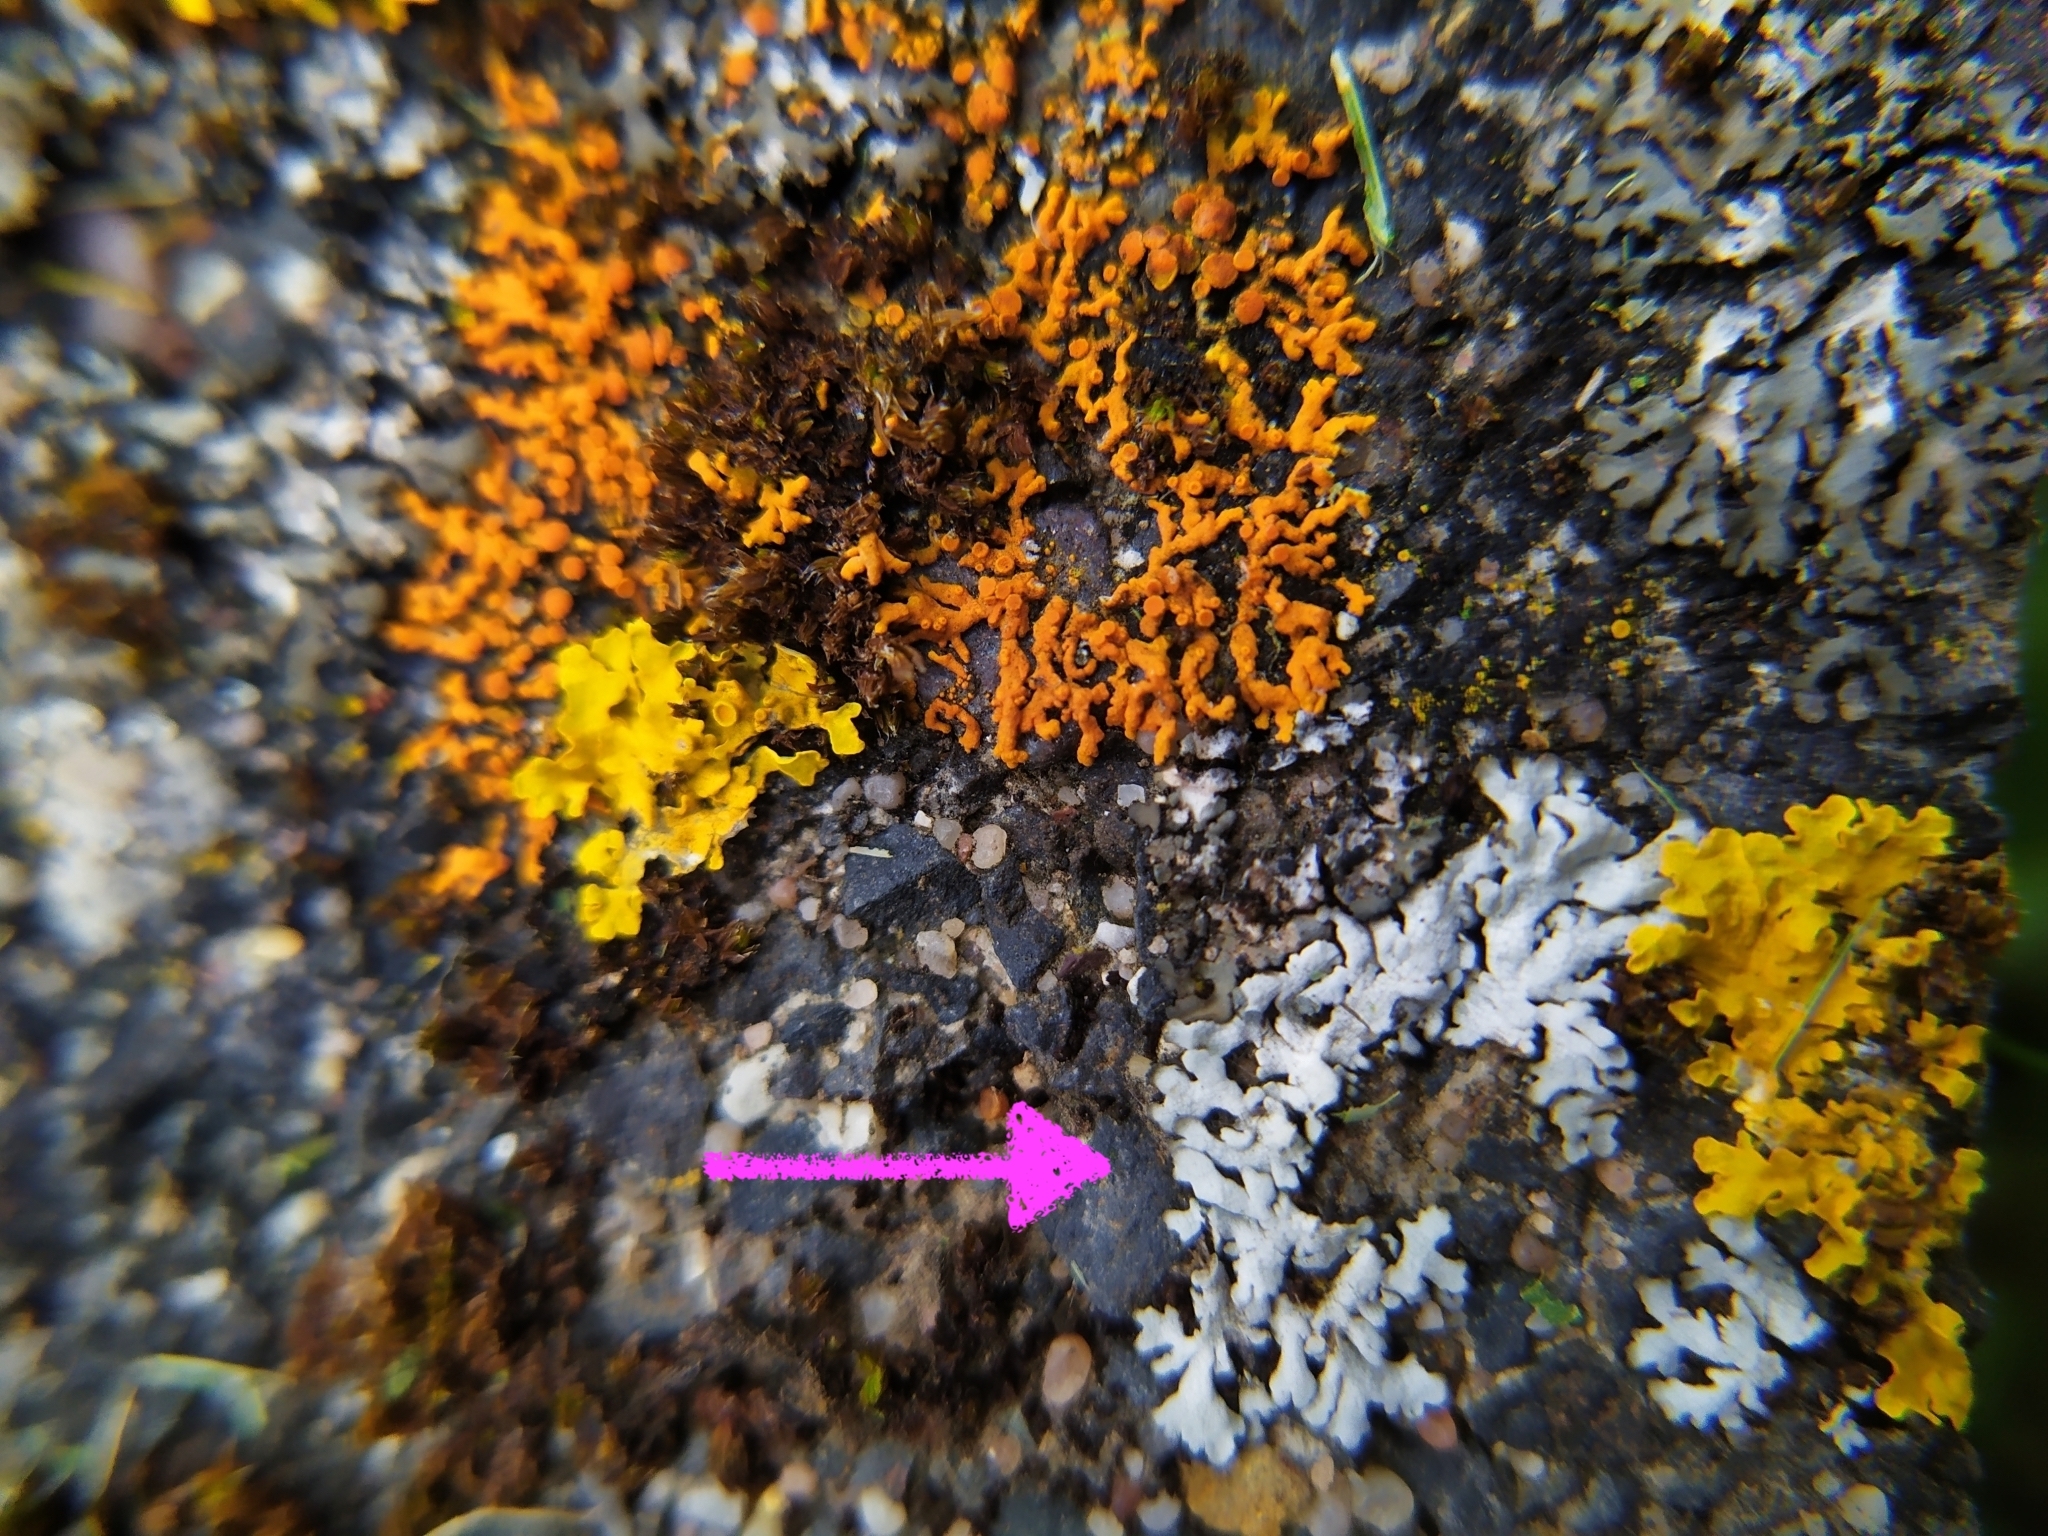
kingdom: Fungi
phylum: Ascomycota
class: Lecanoromycetes
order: Caliciales
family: Physciaceae
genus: Physcia
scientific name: Physcia caesia
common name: Blue-gray rosette lichen
